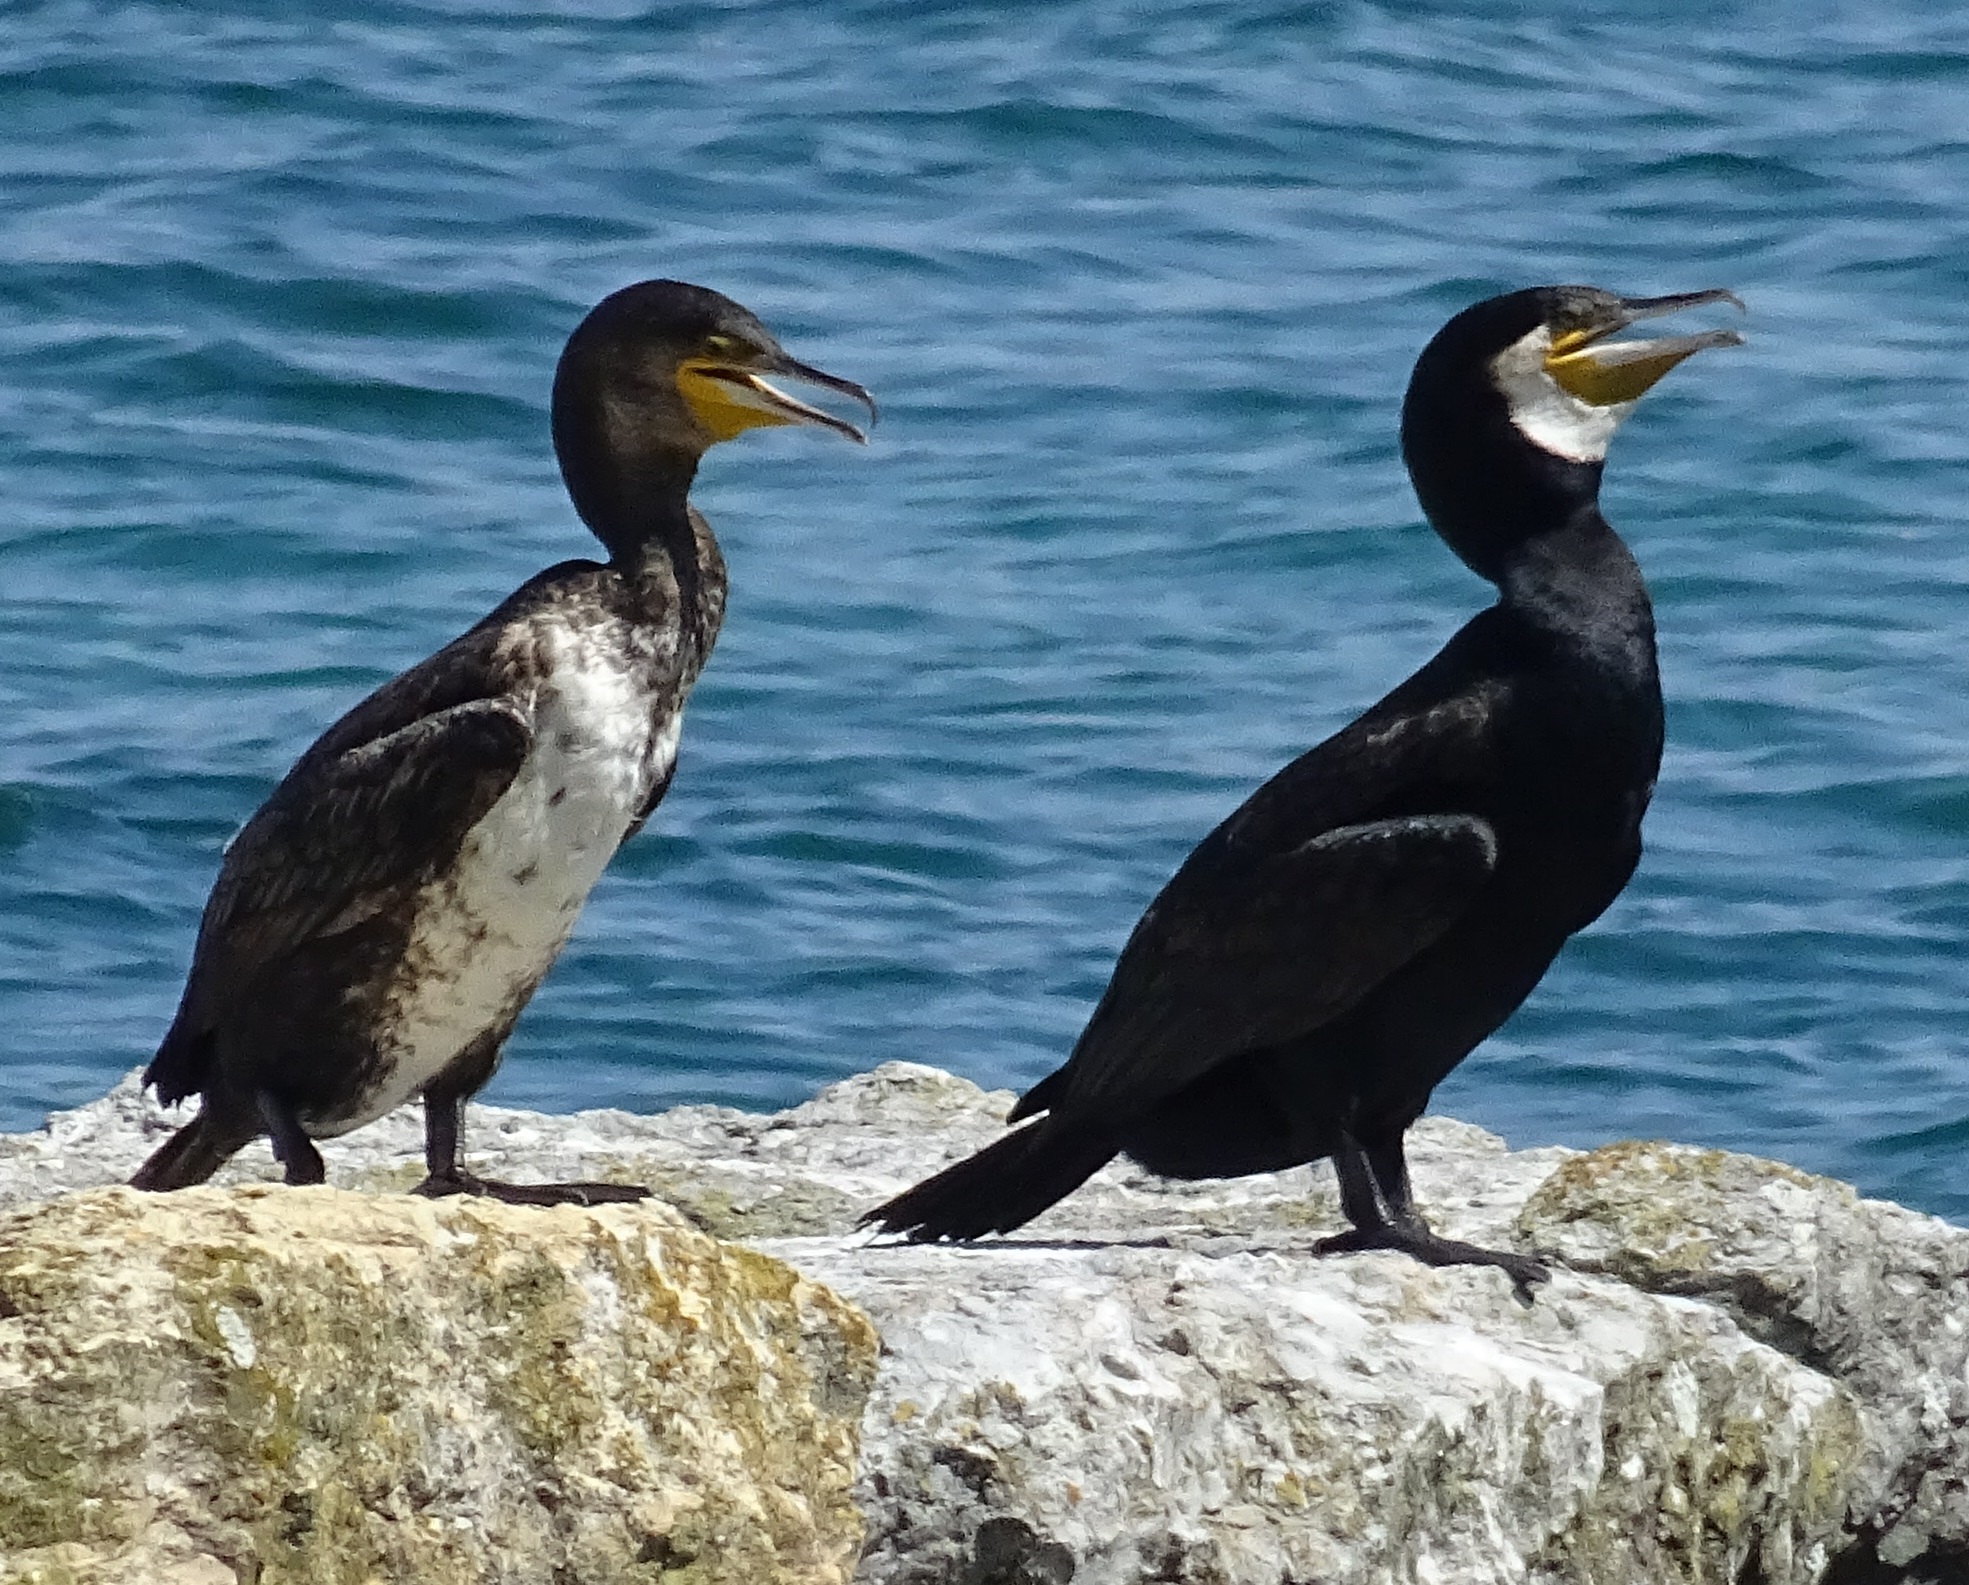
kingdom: Animalia
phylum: Chordata
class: Aves
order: Suliformes
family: Phalacrocoracidae
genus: Phalacrocorax
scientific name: Phalacrocorax carbo
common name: Great cormorant
